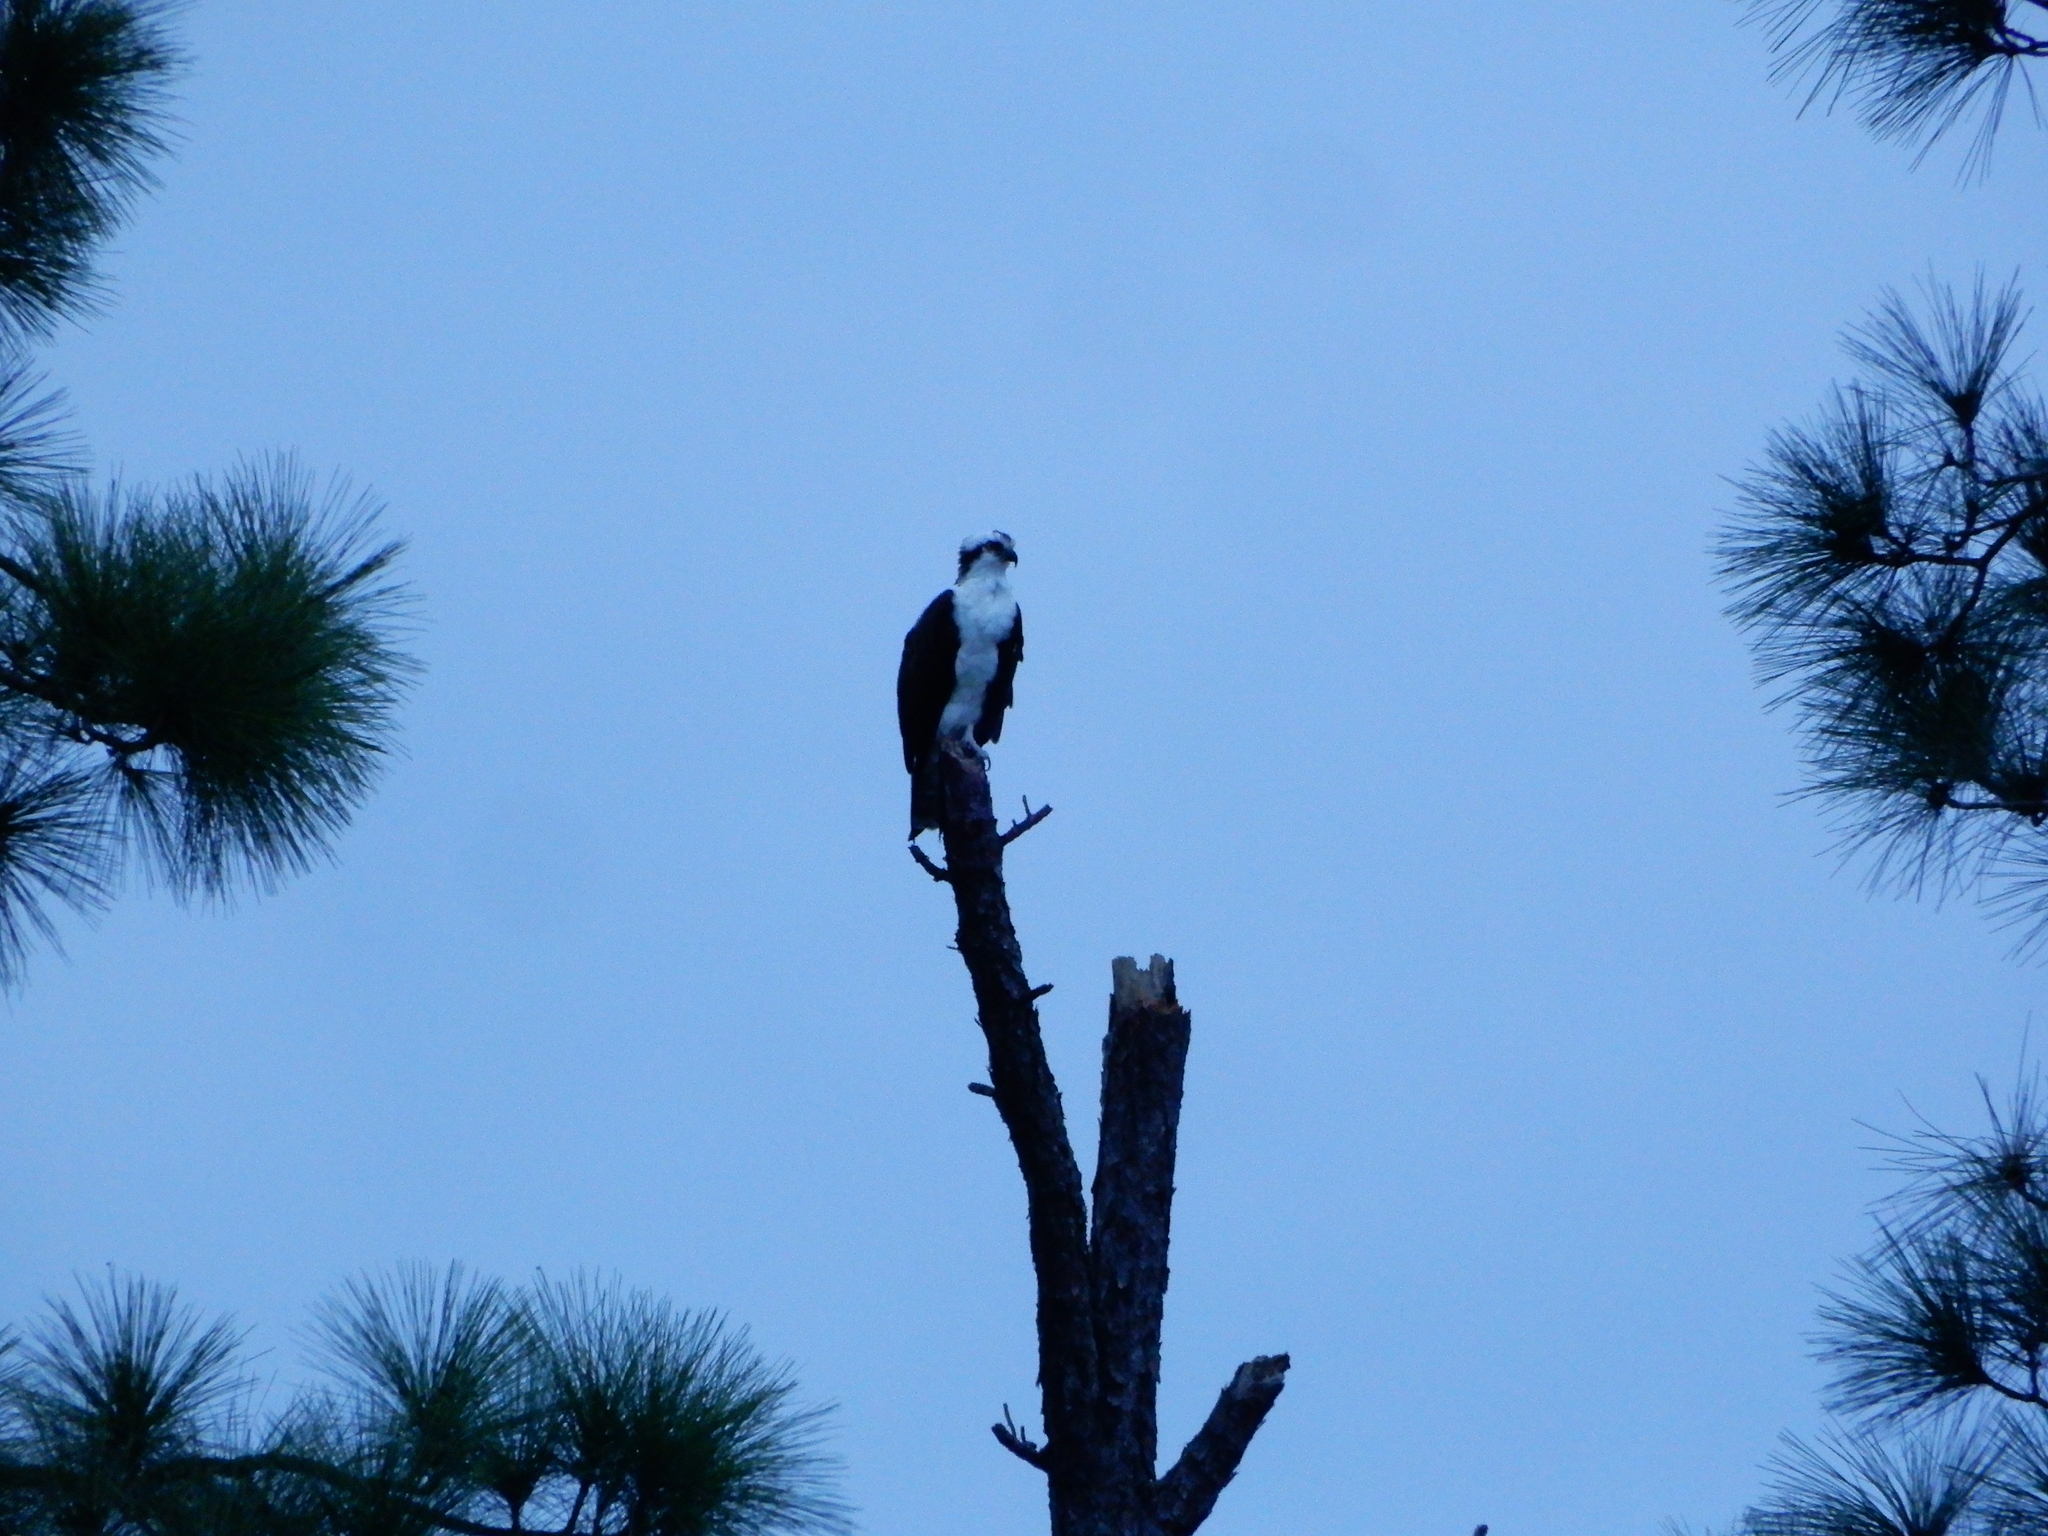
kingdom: Animalia
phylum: Chordata
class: Aves
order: Accipitriformes
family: Pandionidae
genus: Pandion
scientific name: Pandion haliaetus
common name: Osprey
